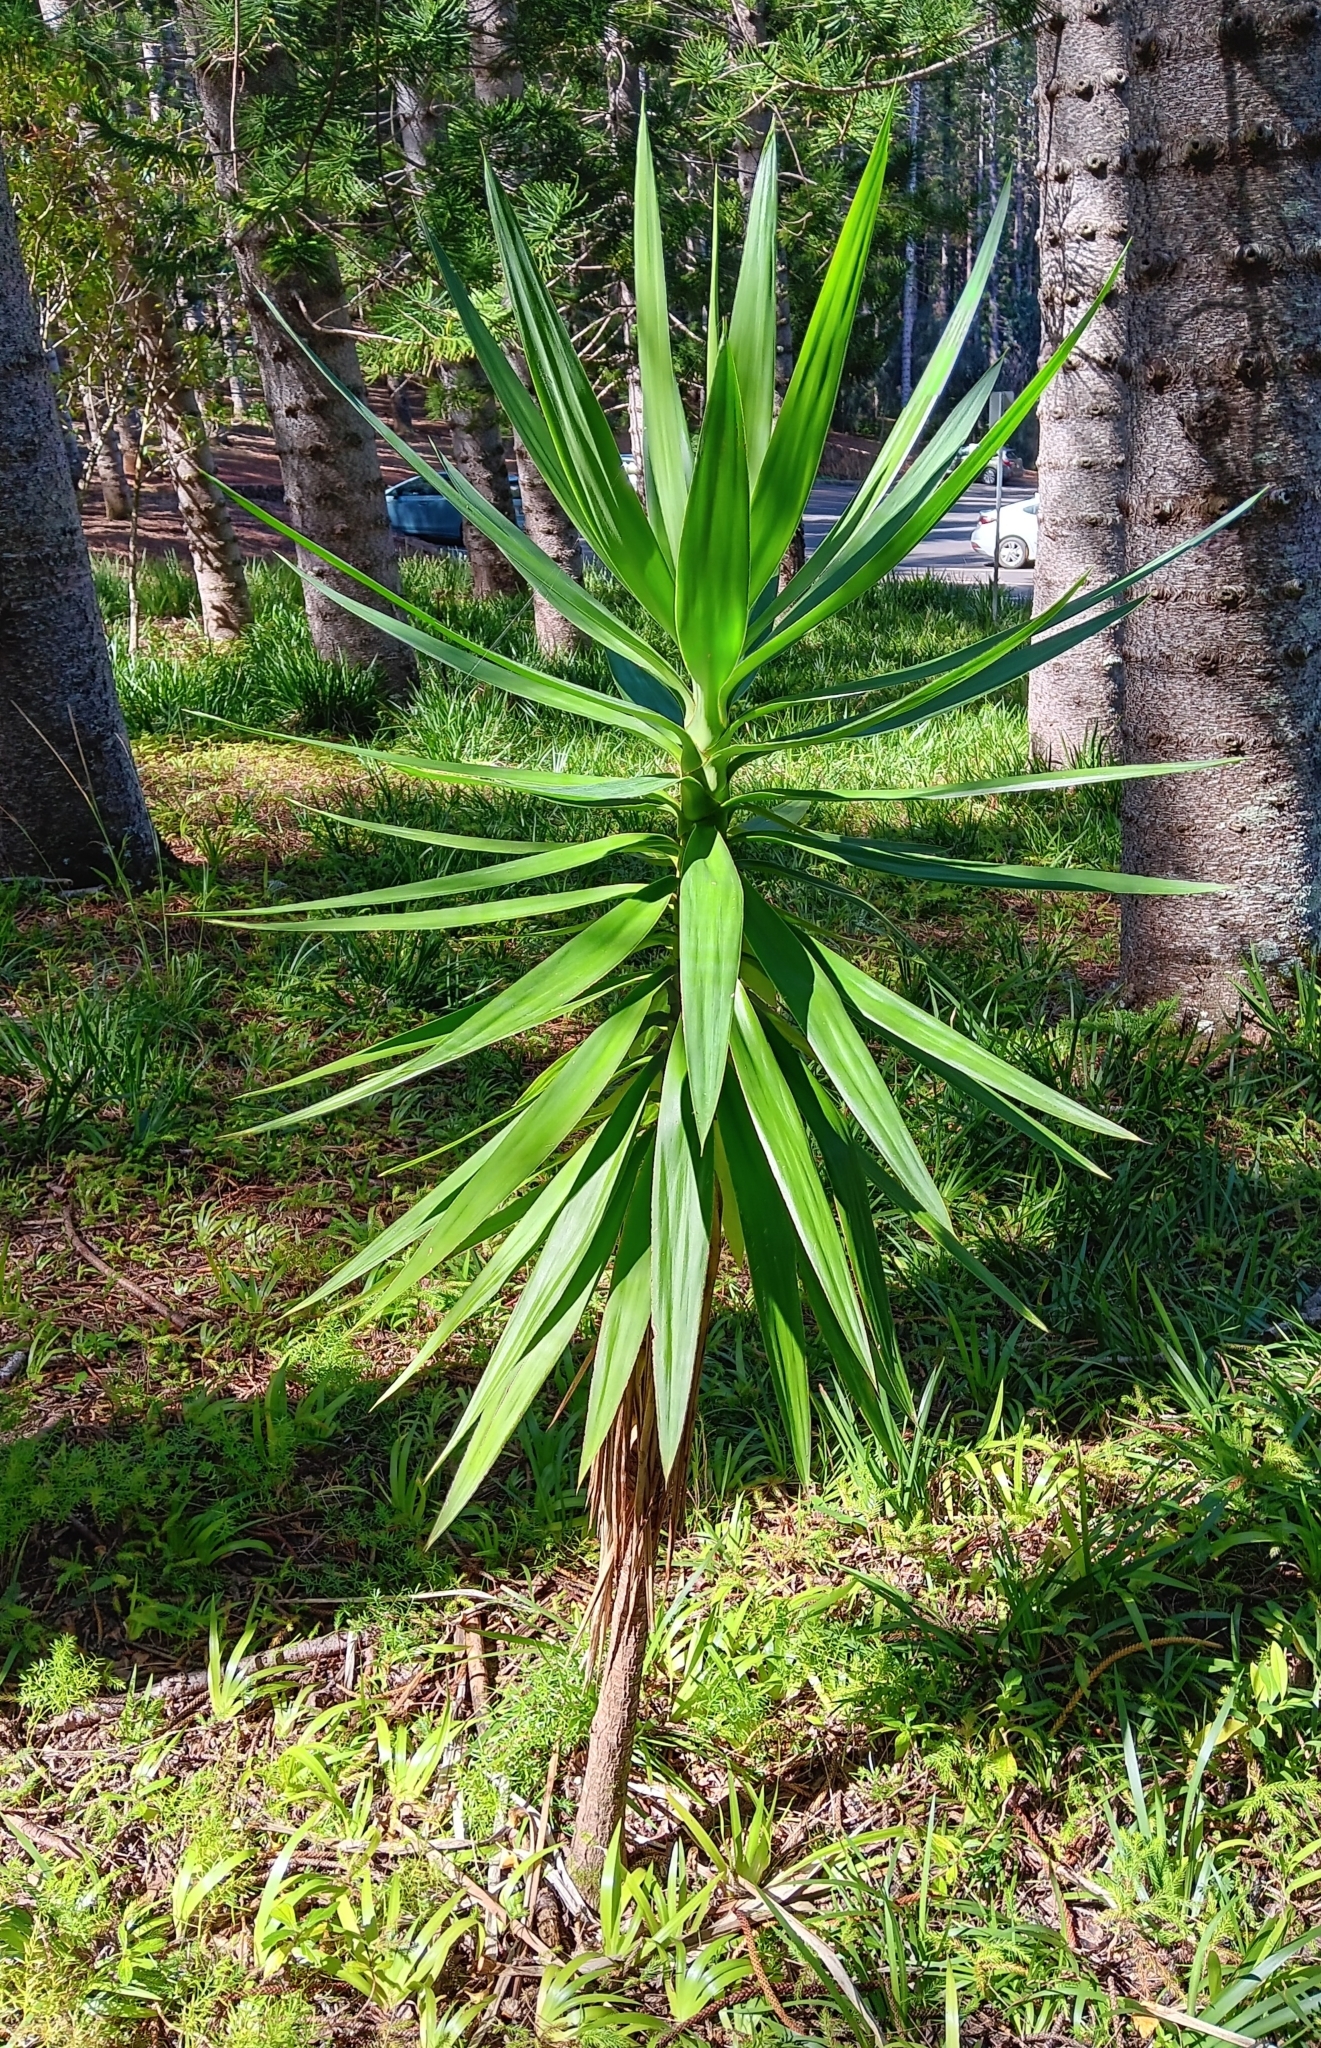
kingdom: Plantae
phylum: Tracheophyta
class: Liliopsida
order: Asparagales
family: Asparagaceae
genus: Yucca
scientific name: Yucca gigantea
